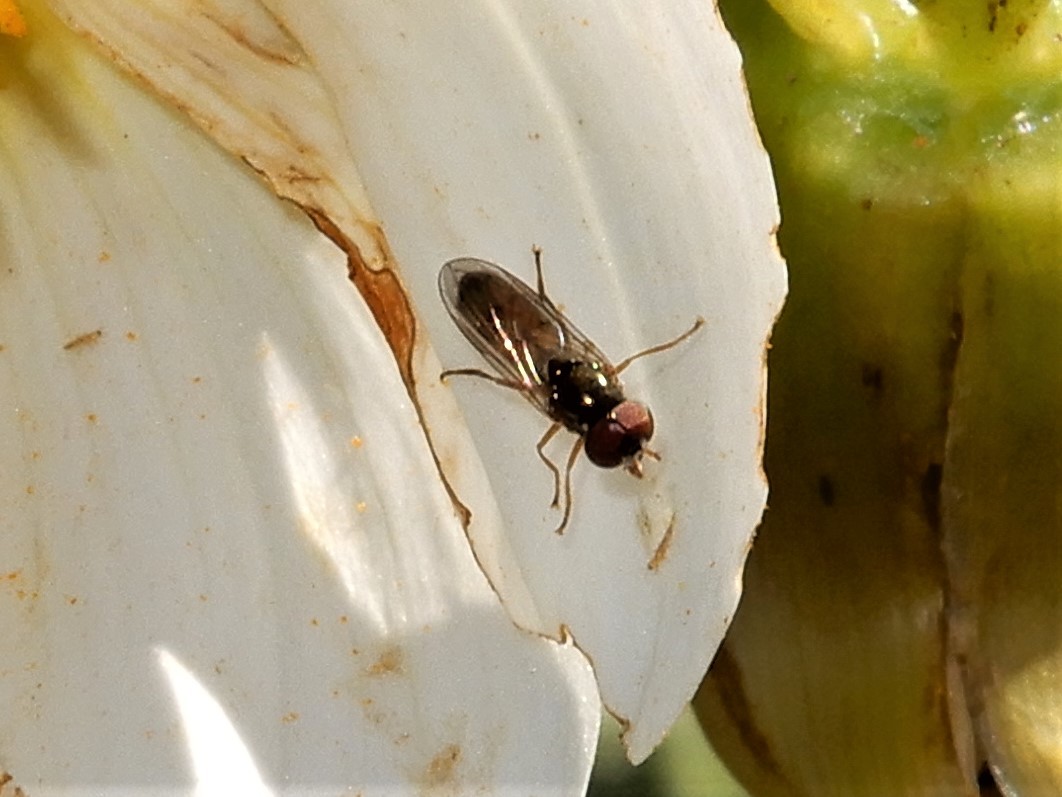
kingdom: Animalia
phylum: Arthropoda
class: Insecta
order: Diptera
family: Syrphidae
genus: Melanostoma
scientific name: Melanostoma fasciatum
